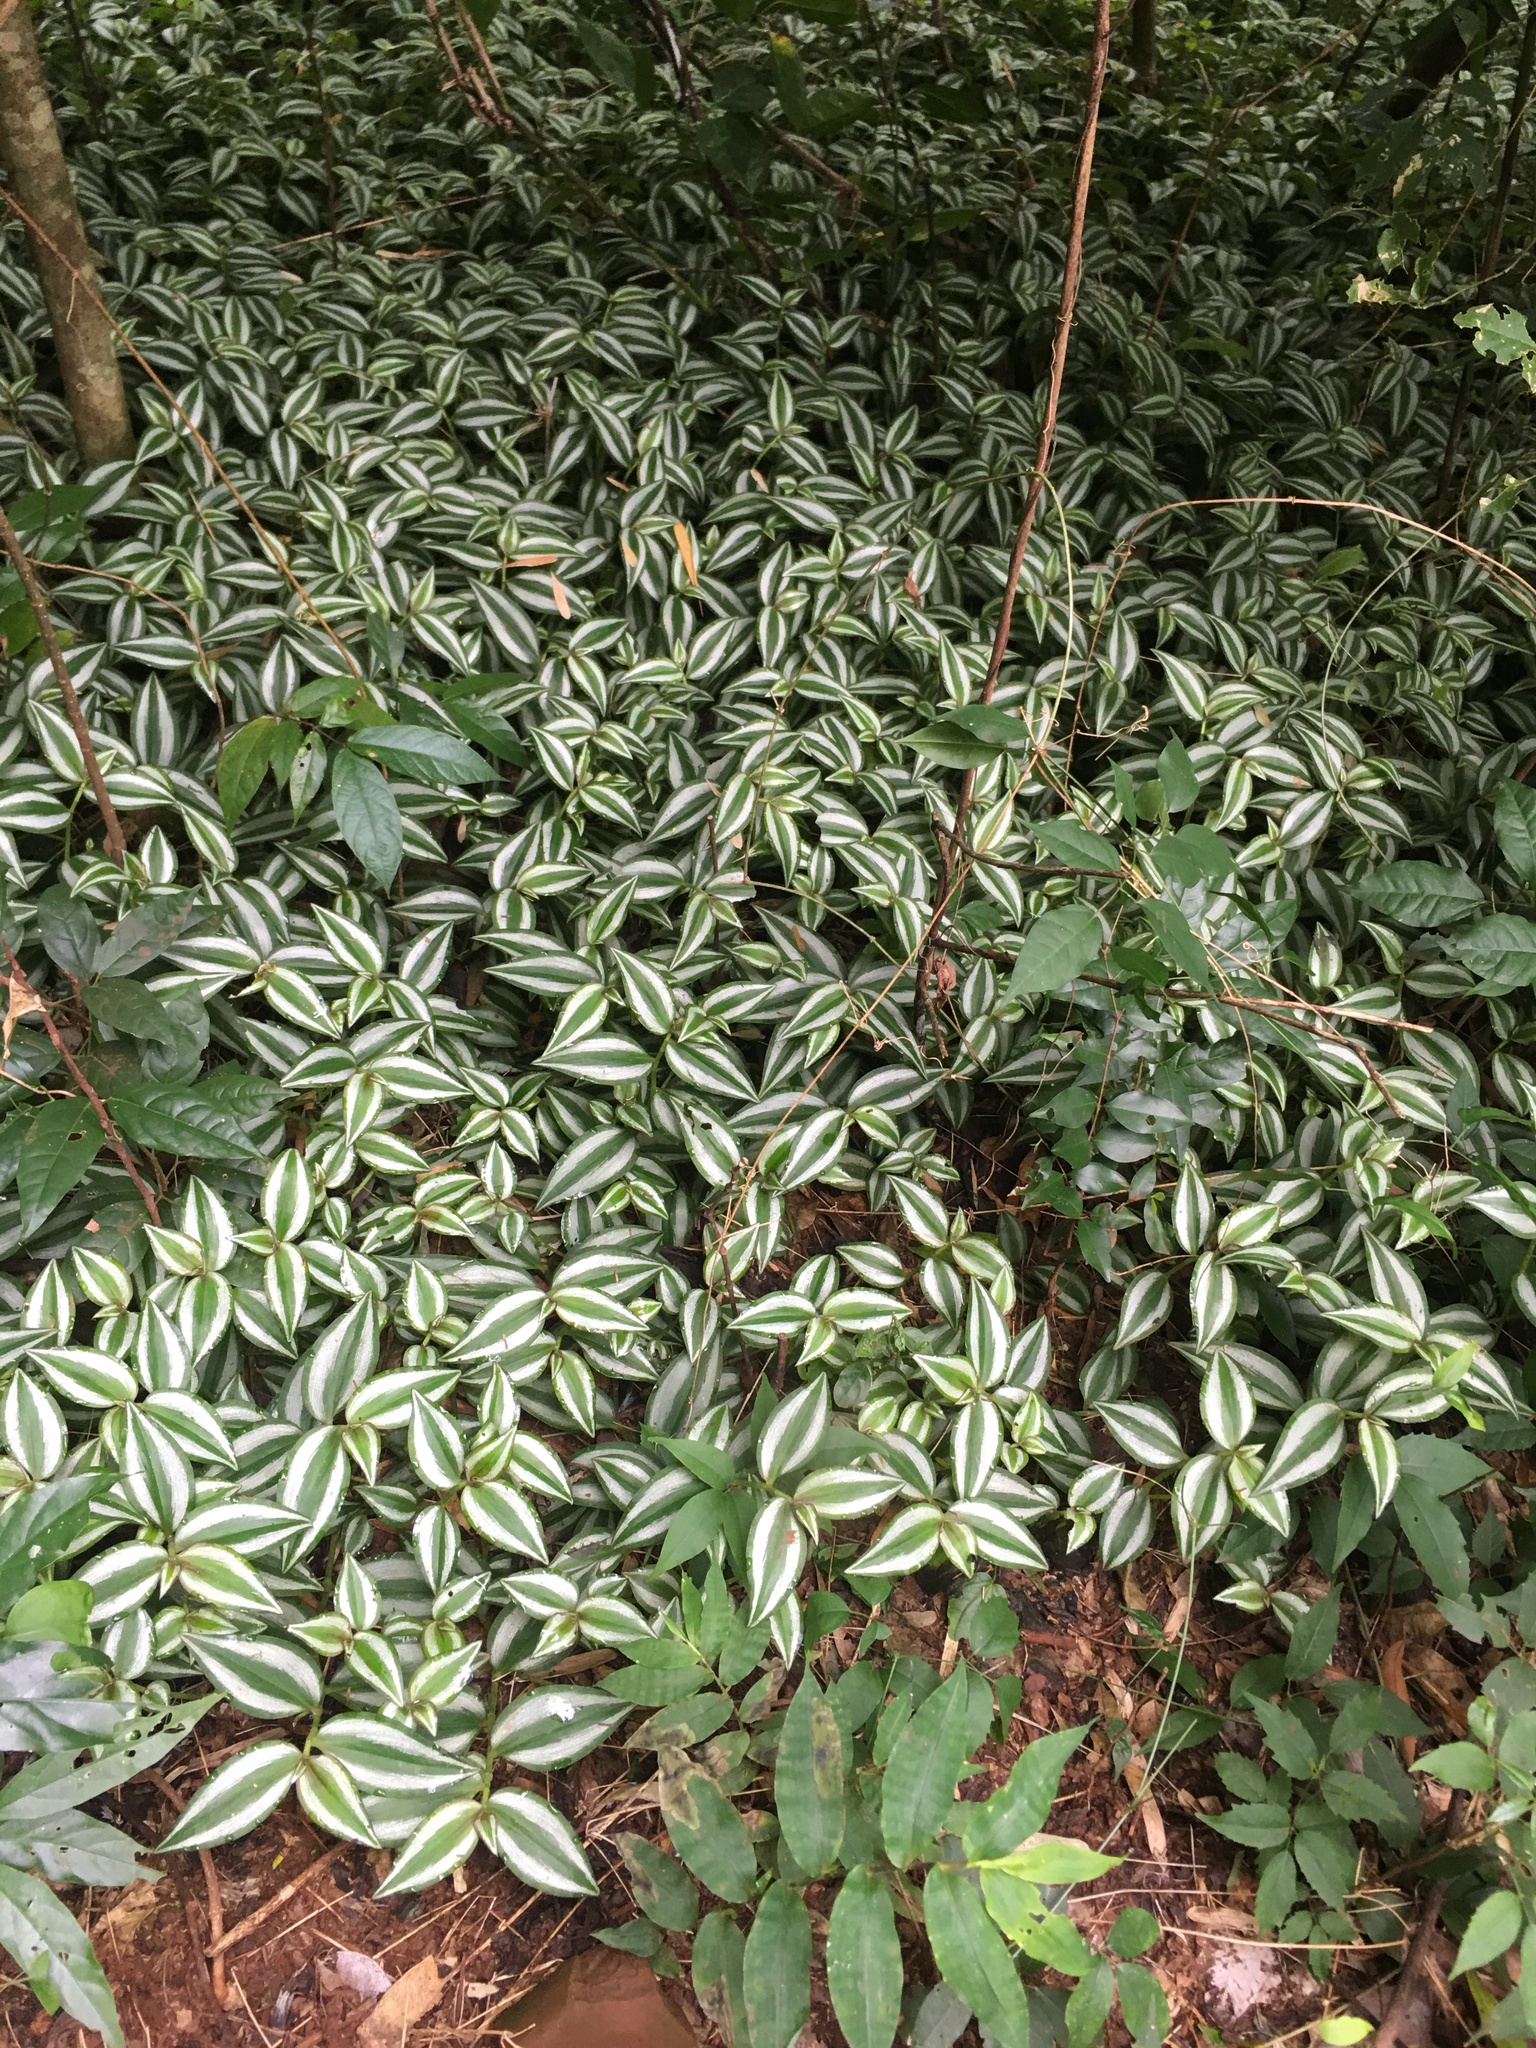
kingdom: Plantae
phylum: Tracheophyta
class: Liliopsida
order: Commelinales
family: Commelinaceae
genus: Tradescantia
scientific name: Tradescantia zebrina
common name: Inchplant
